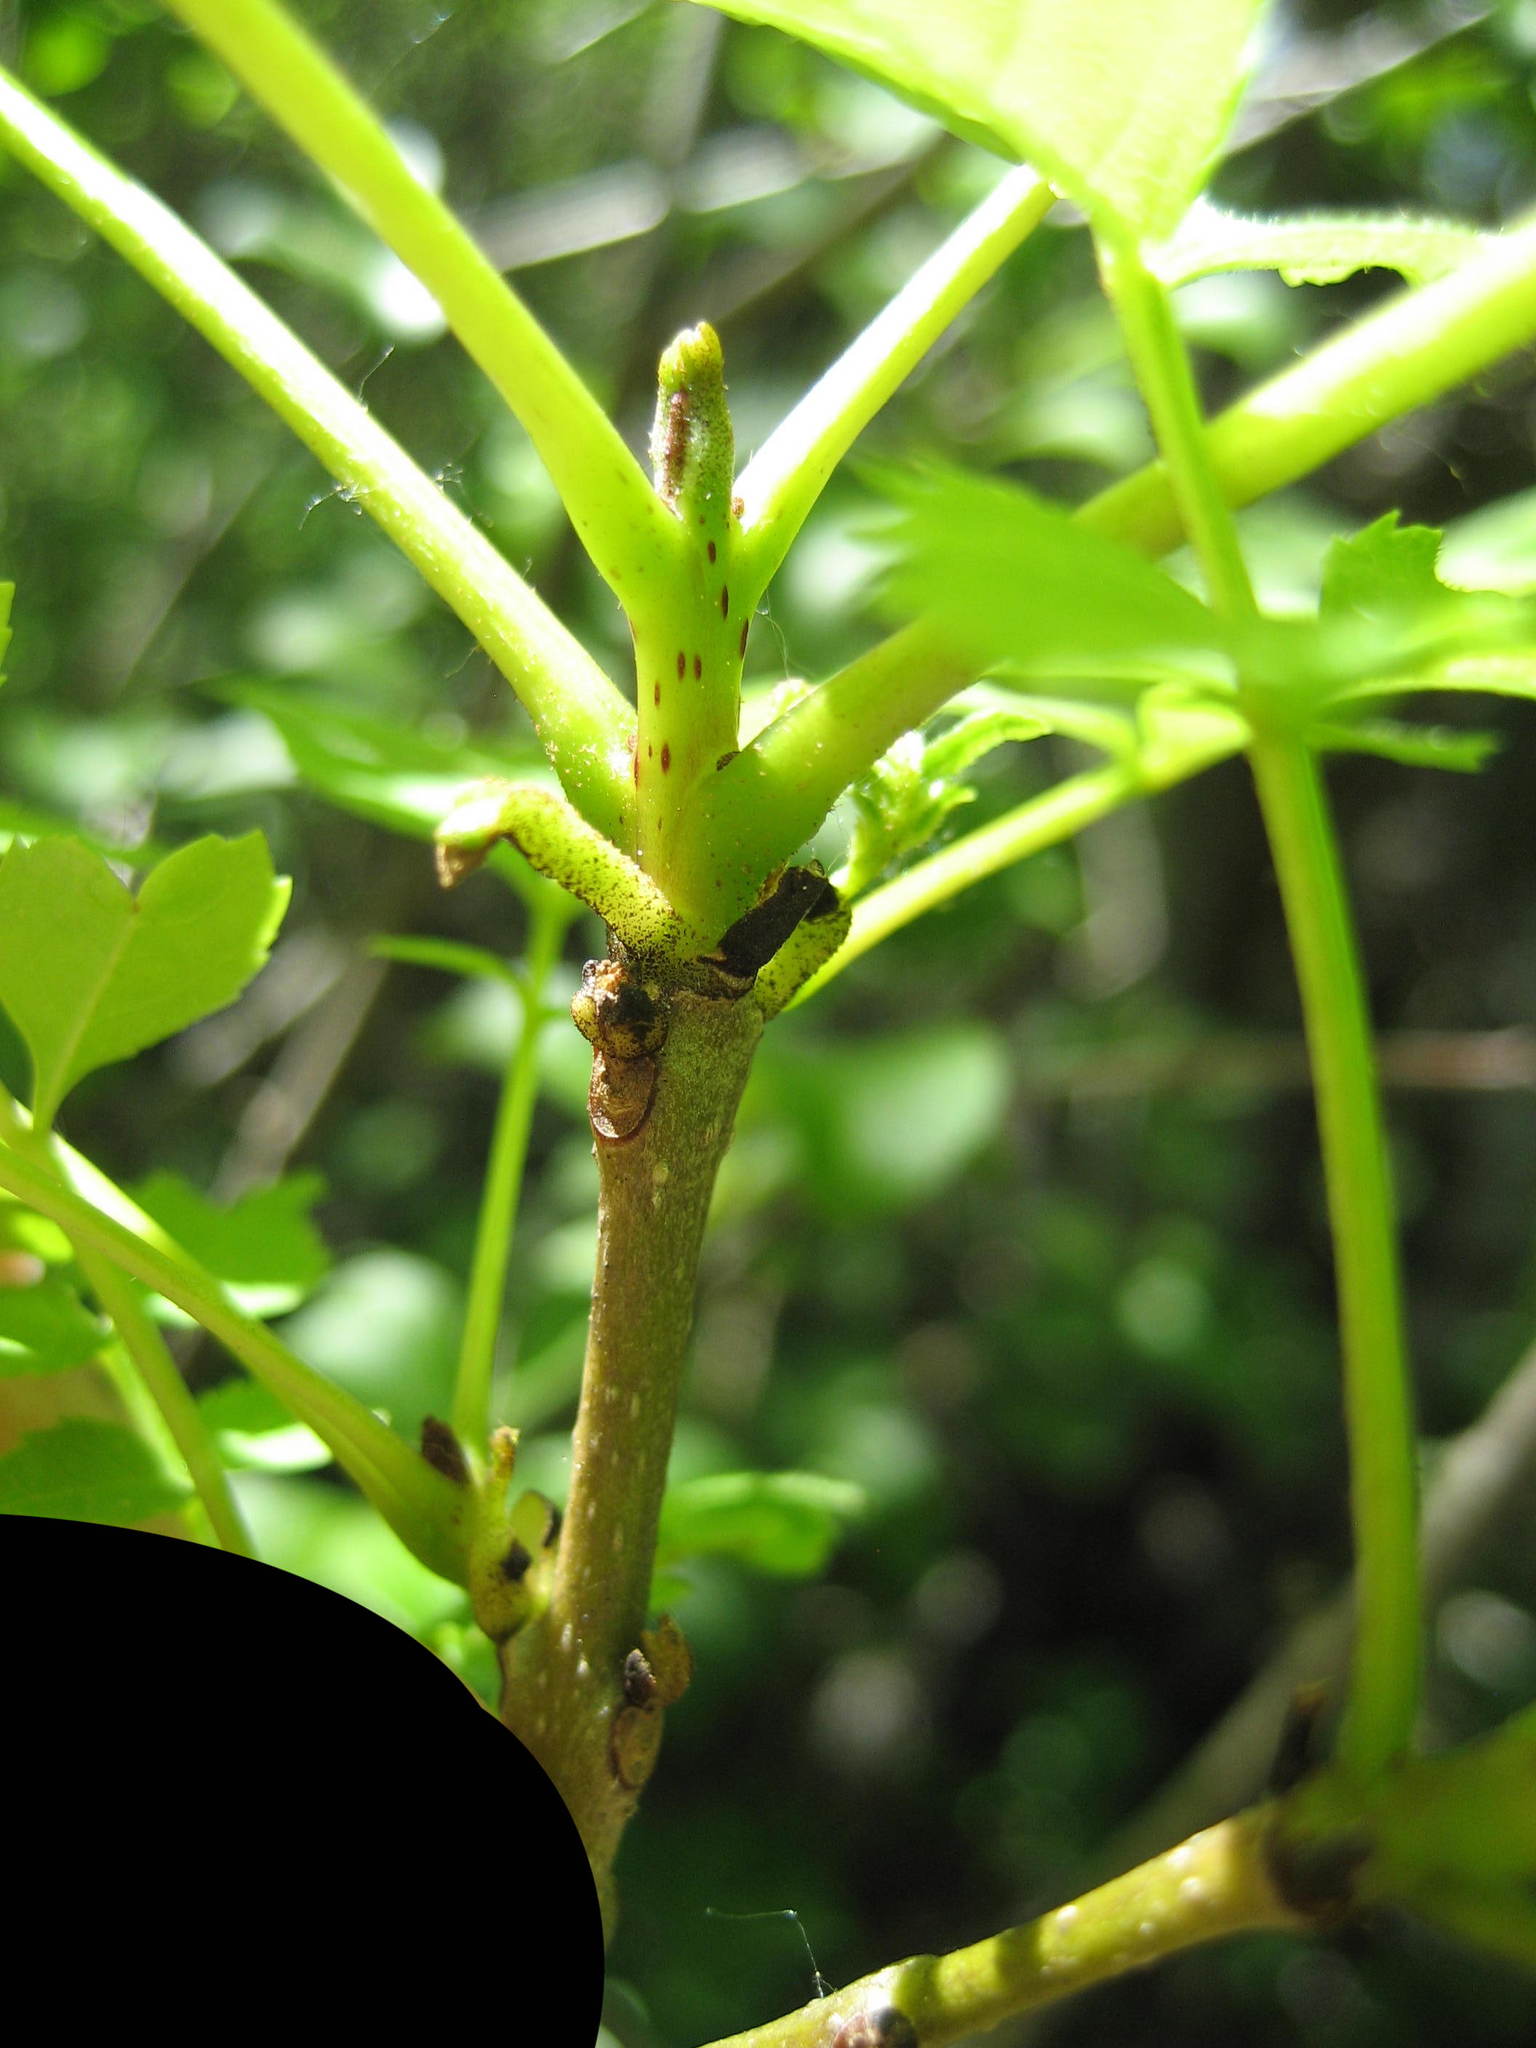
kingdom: Plantae
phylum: Tracheophyta
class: Magnoliopsida
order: Lamiales
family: Oleaceae
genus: Fraxinus
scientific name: Fraxinus excelsior
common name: European ash
